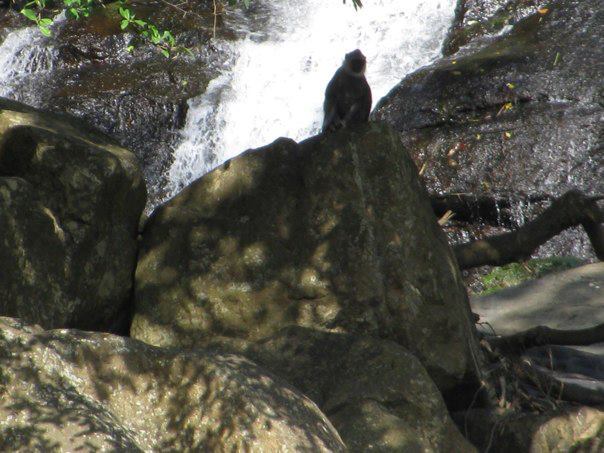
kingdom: Animalia
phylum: Chordata
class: Mammalia
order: Primates
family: Cercopithecidae
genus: Semnopithecus
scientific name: Semnopithecus priam
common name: Tufted gray langur
